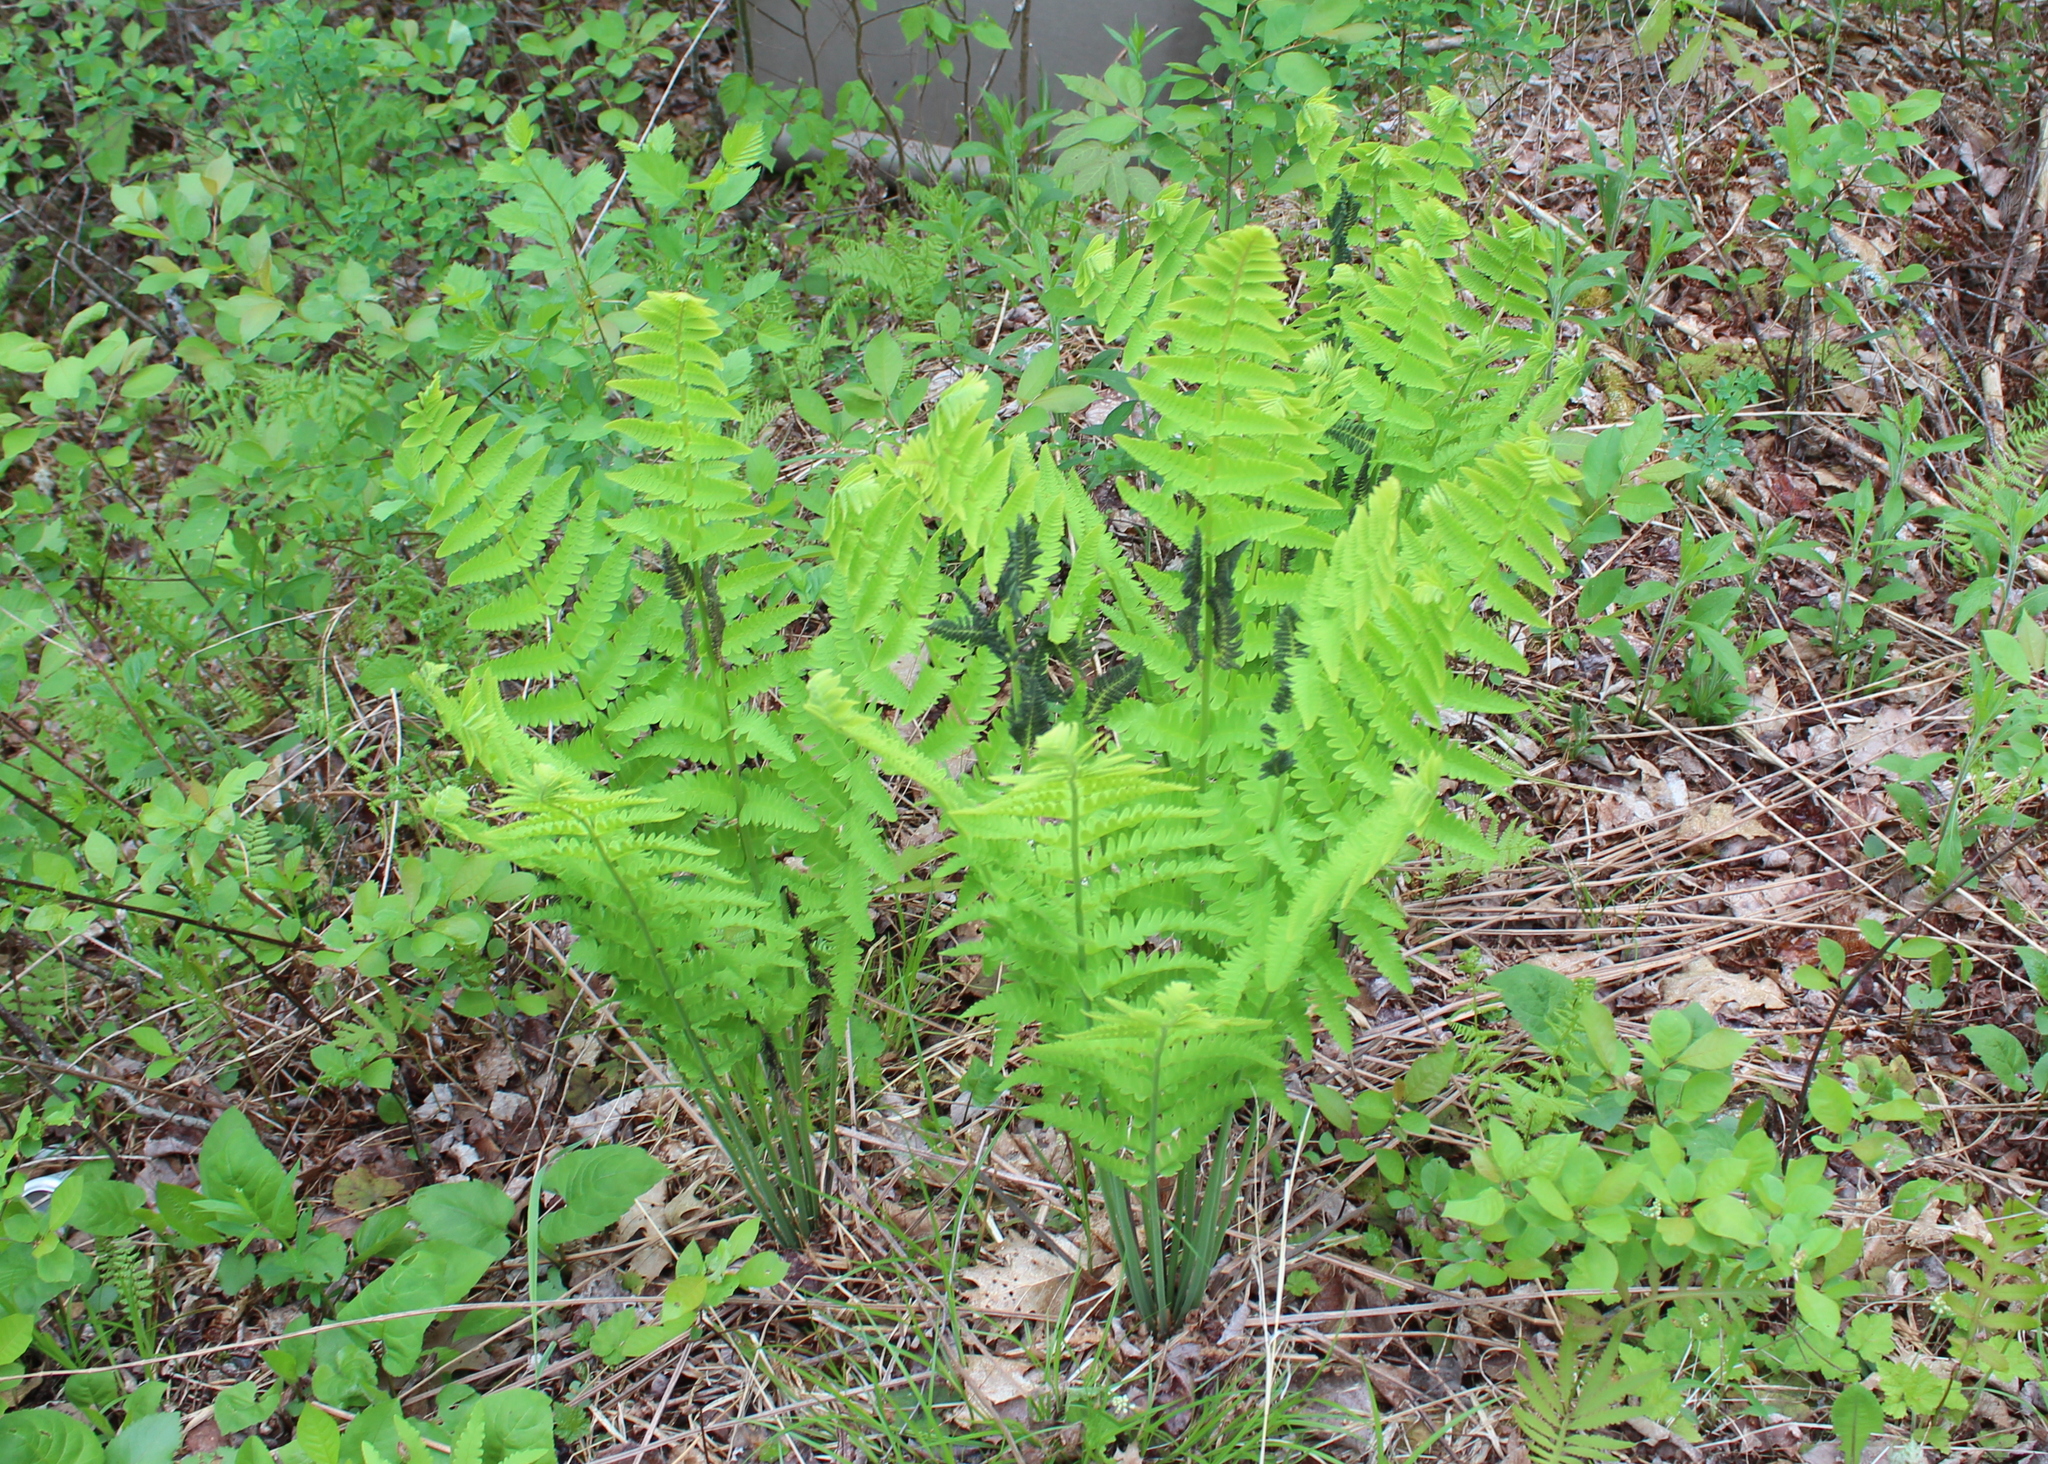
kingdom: Plantae
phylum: Tracheophyta
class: Polypodiopsida
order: Osmundales
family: Osmundaceae
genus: Claytosmunda
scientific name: Claytosmunda claytoniana
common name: Clayton's fern
